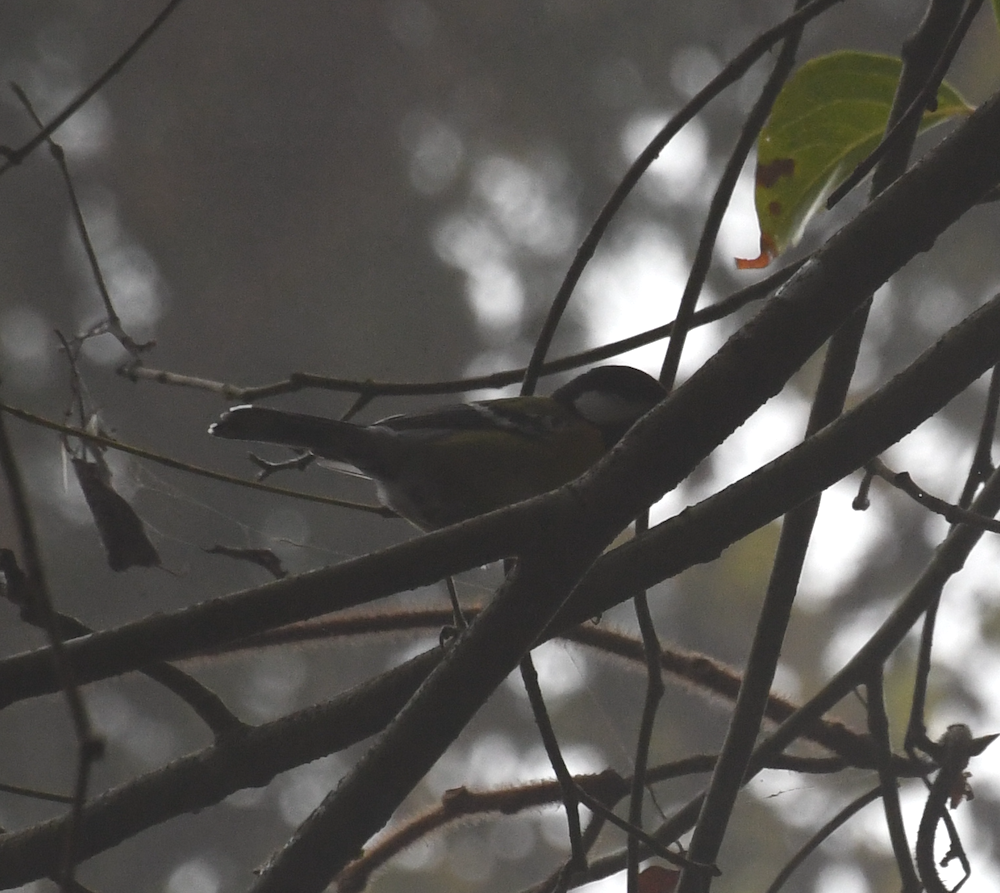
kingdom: Animalia
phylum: Chordata
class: Aves
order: Passeriformes
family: Paridae
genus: Parus
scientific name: Parus monticolus
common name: Green-backed tit
